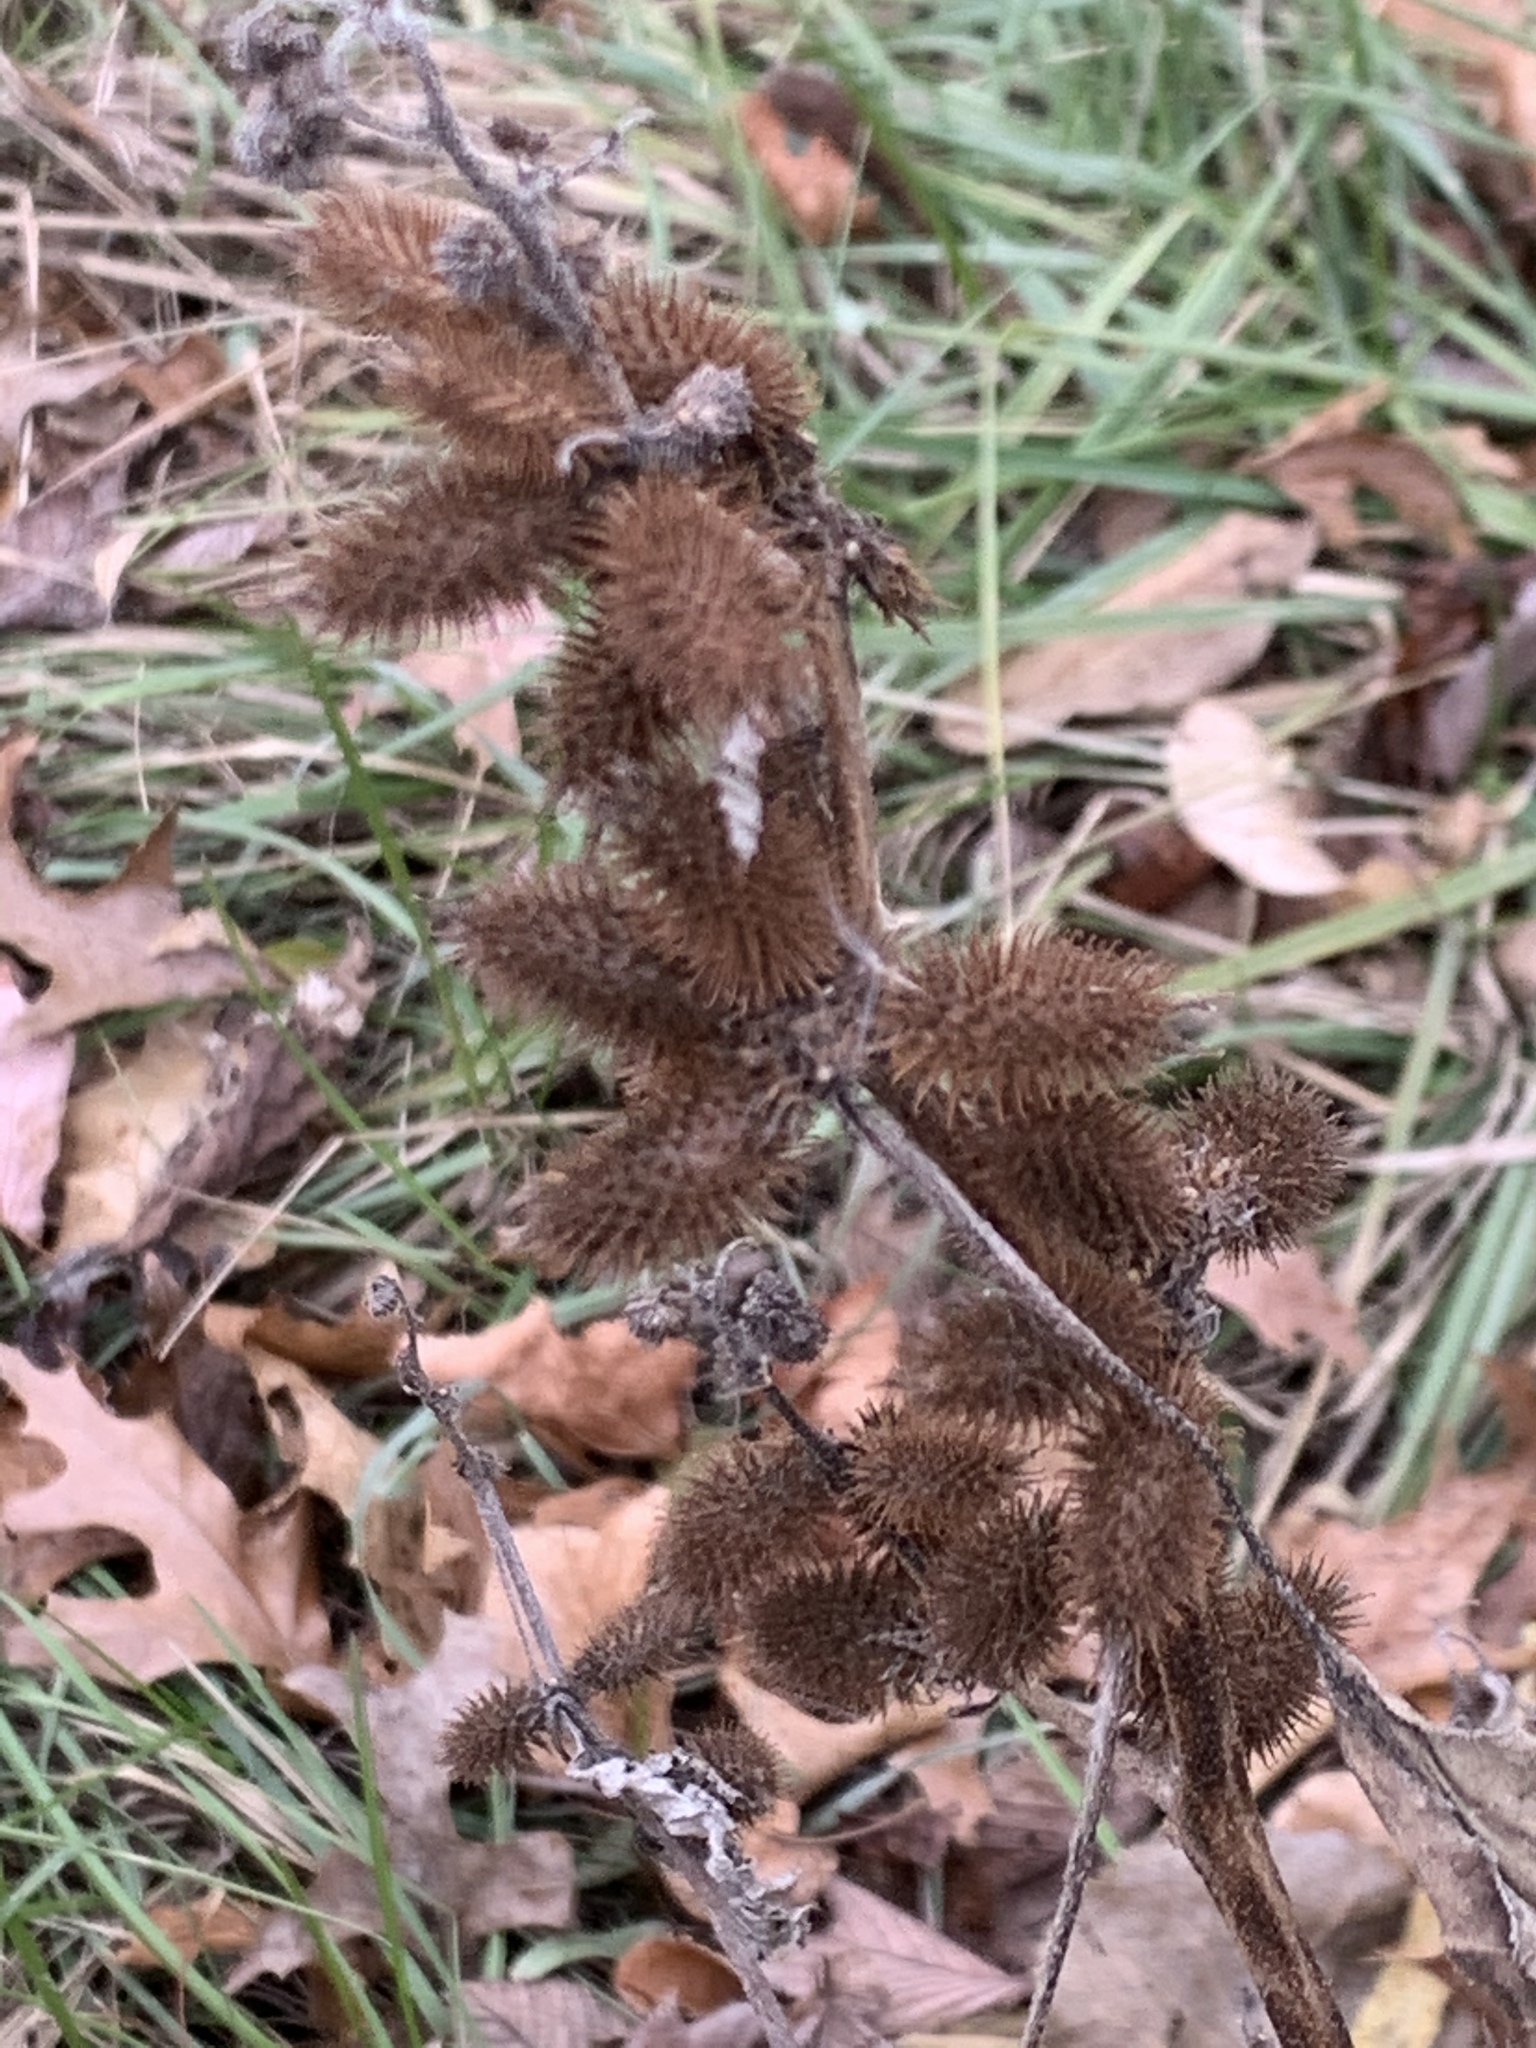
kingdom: Plantae
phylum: Tracheophyta
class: Magnoliopsida
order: Asterales
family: Asteraceae
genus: Xanthium
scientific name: Xanthium strumarium
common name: Rough cocklebur
